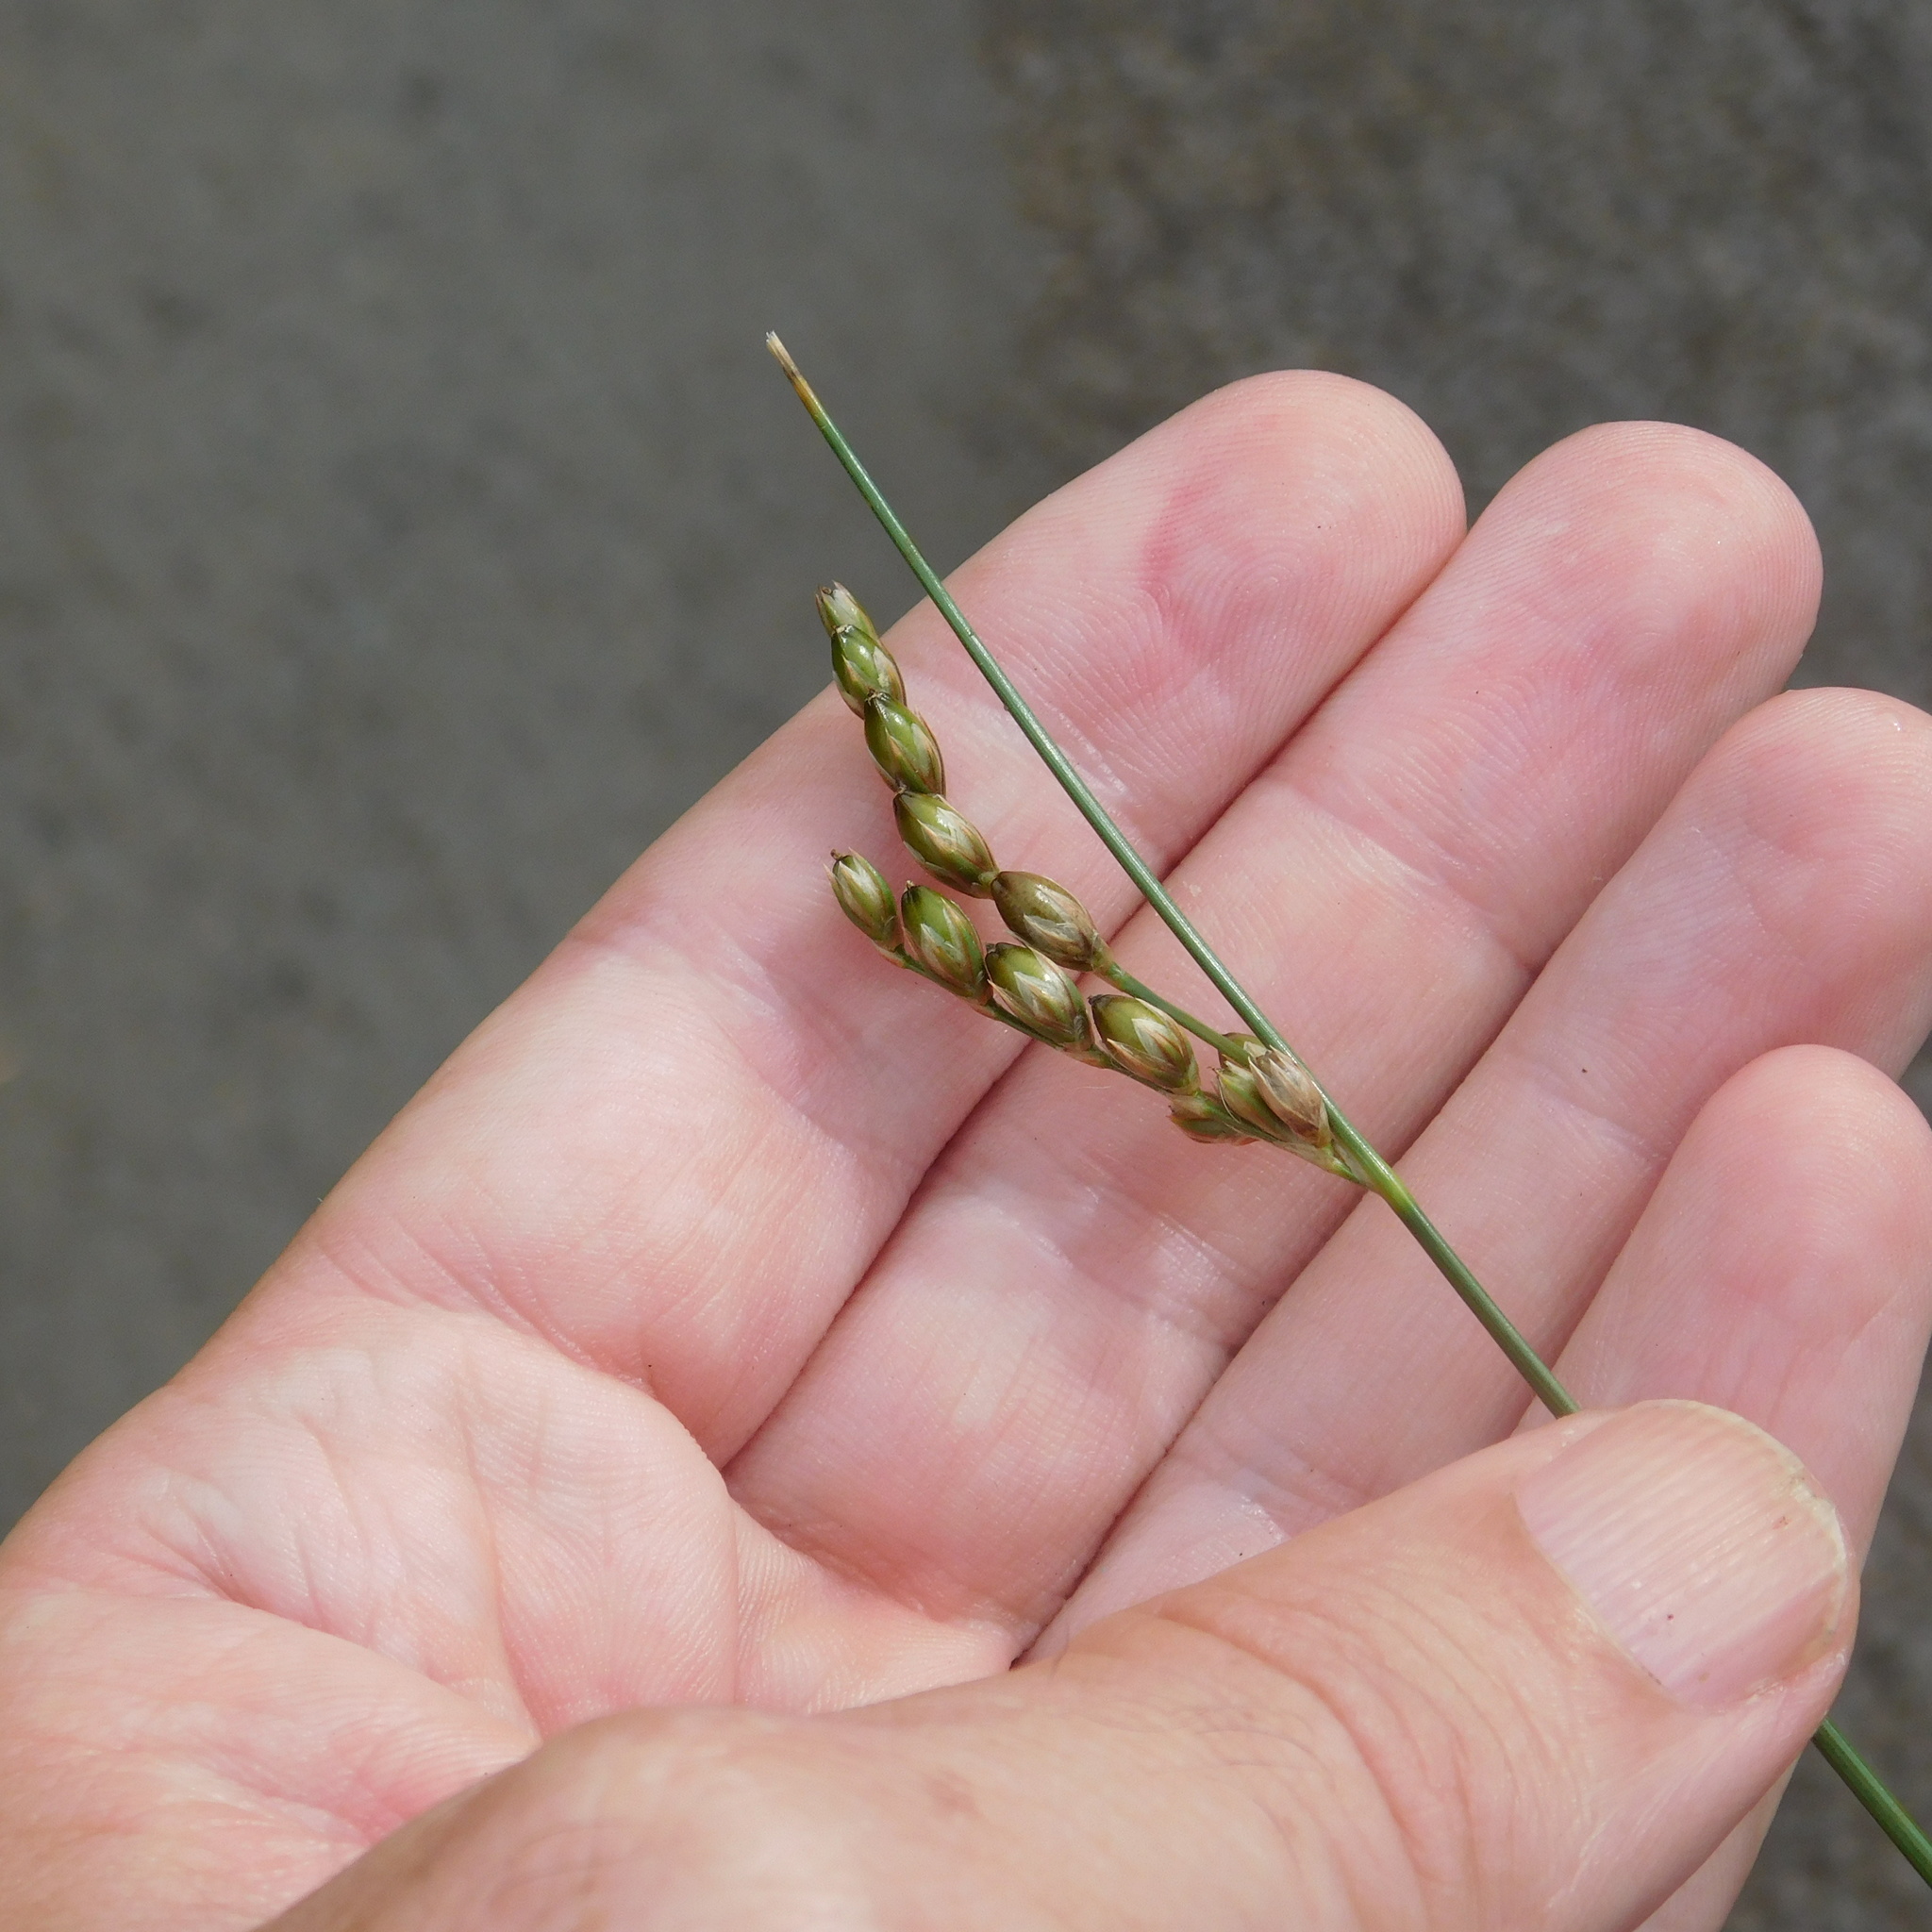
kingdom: Plantae
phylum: Tracheophyta
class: Liliopsida
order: Poales
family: Juncaceae
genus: Juncus
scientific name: Juncus imbricatus
